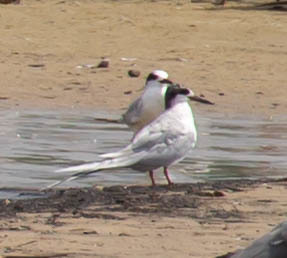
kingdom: Animalia
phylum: Chordata
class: Aves
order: Charadriiformes
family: Laridae
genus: Sterna
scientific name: Sterna forsteri
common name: Forster's tern
